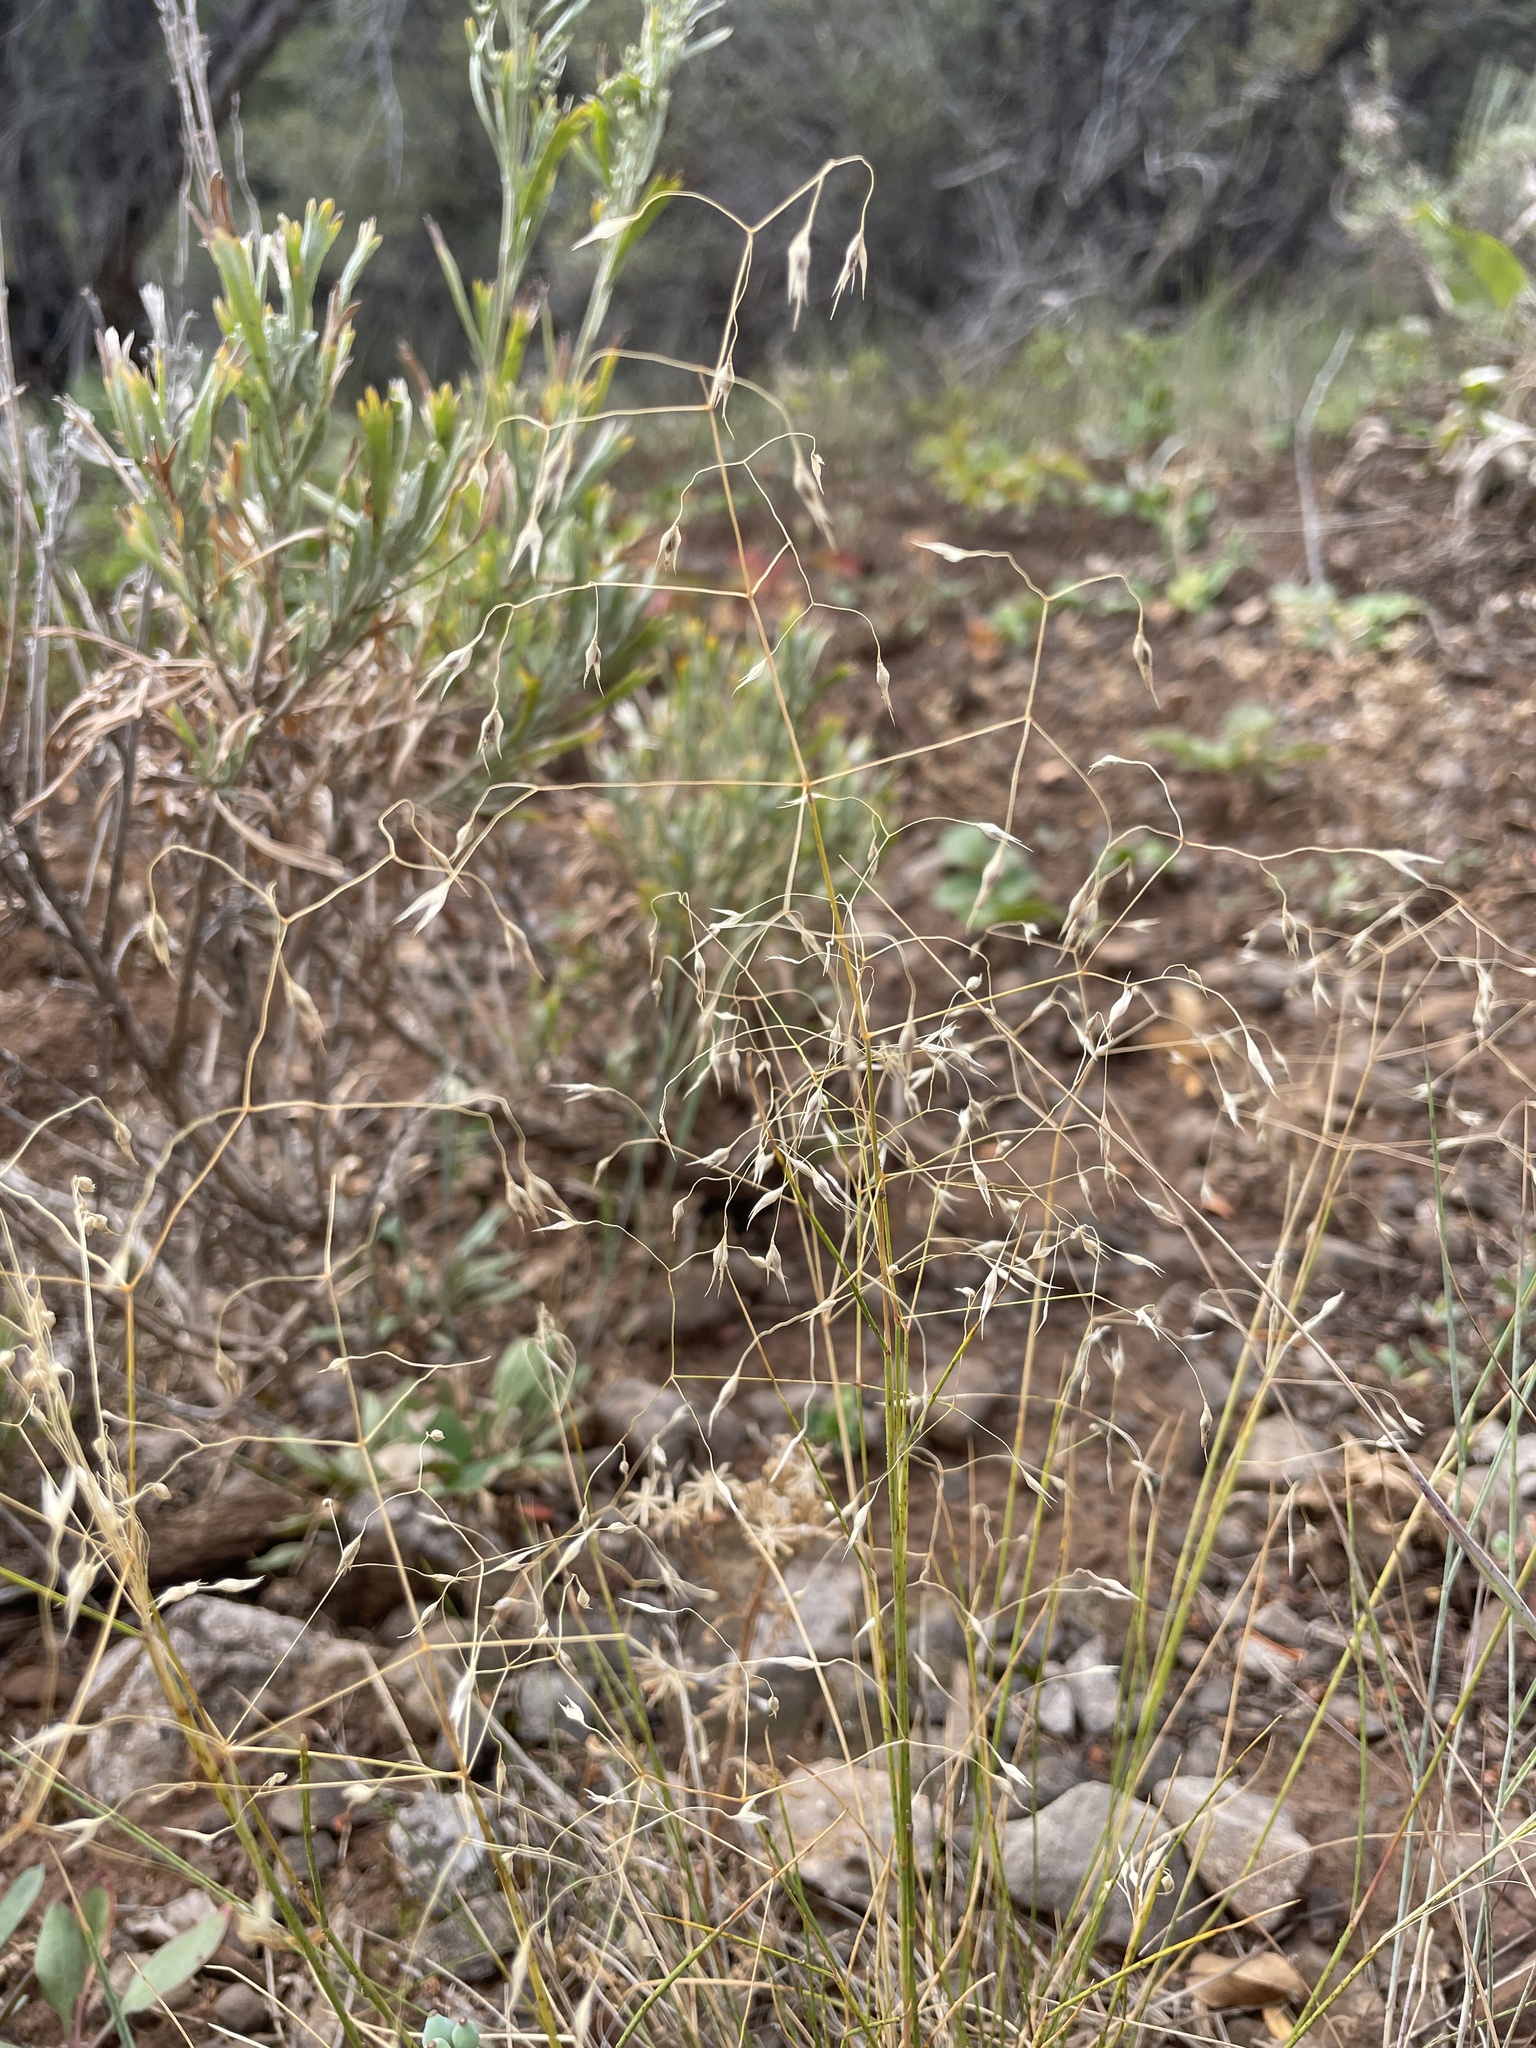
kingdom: Plantae
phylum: Tracheophyta
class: Liliopsida
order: Poales
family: Poaceae
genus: Eriocoma
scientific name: Eriocoma hymenoides
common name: Indian mountain ricegrass
